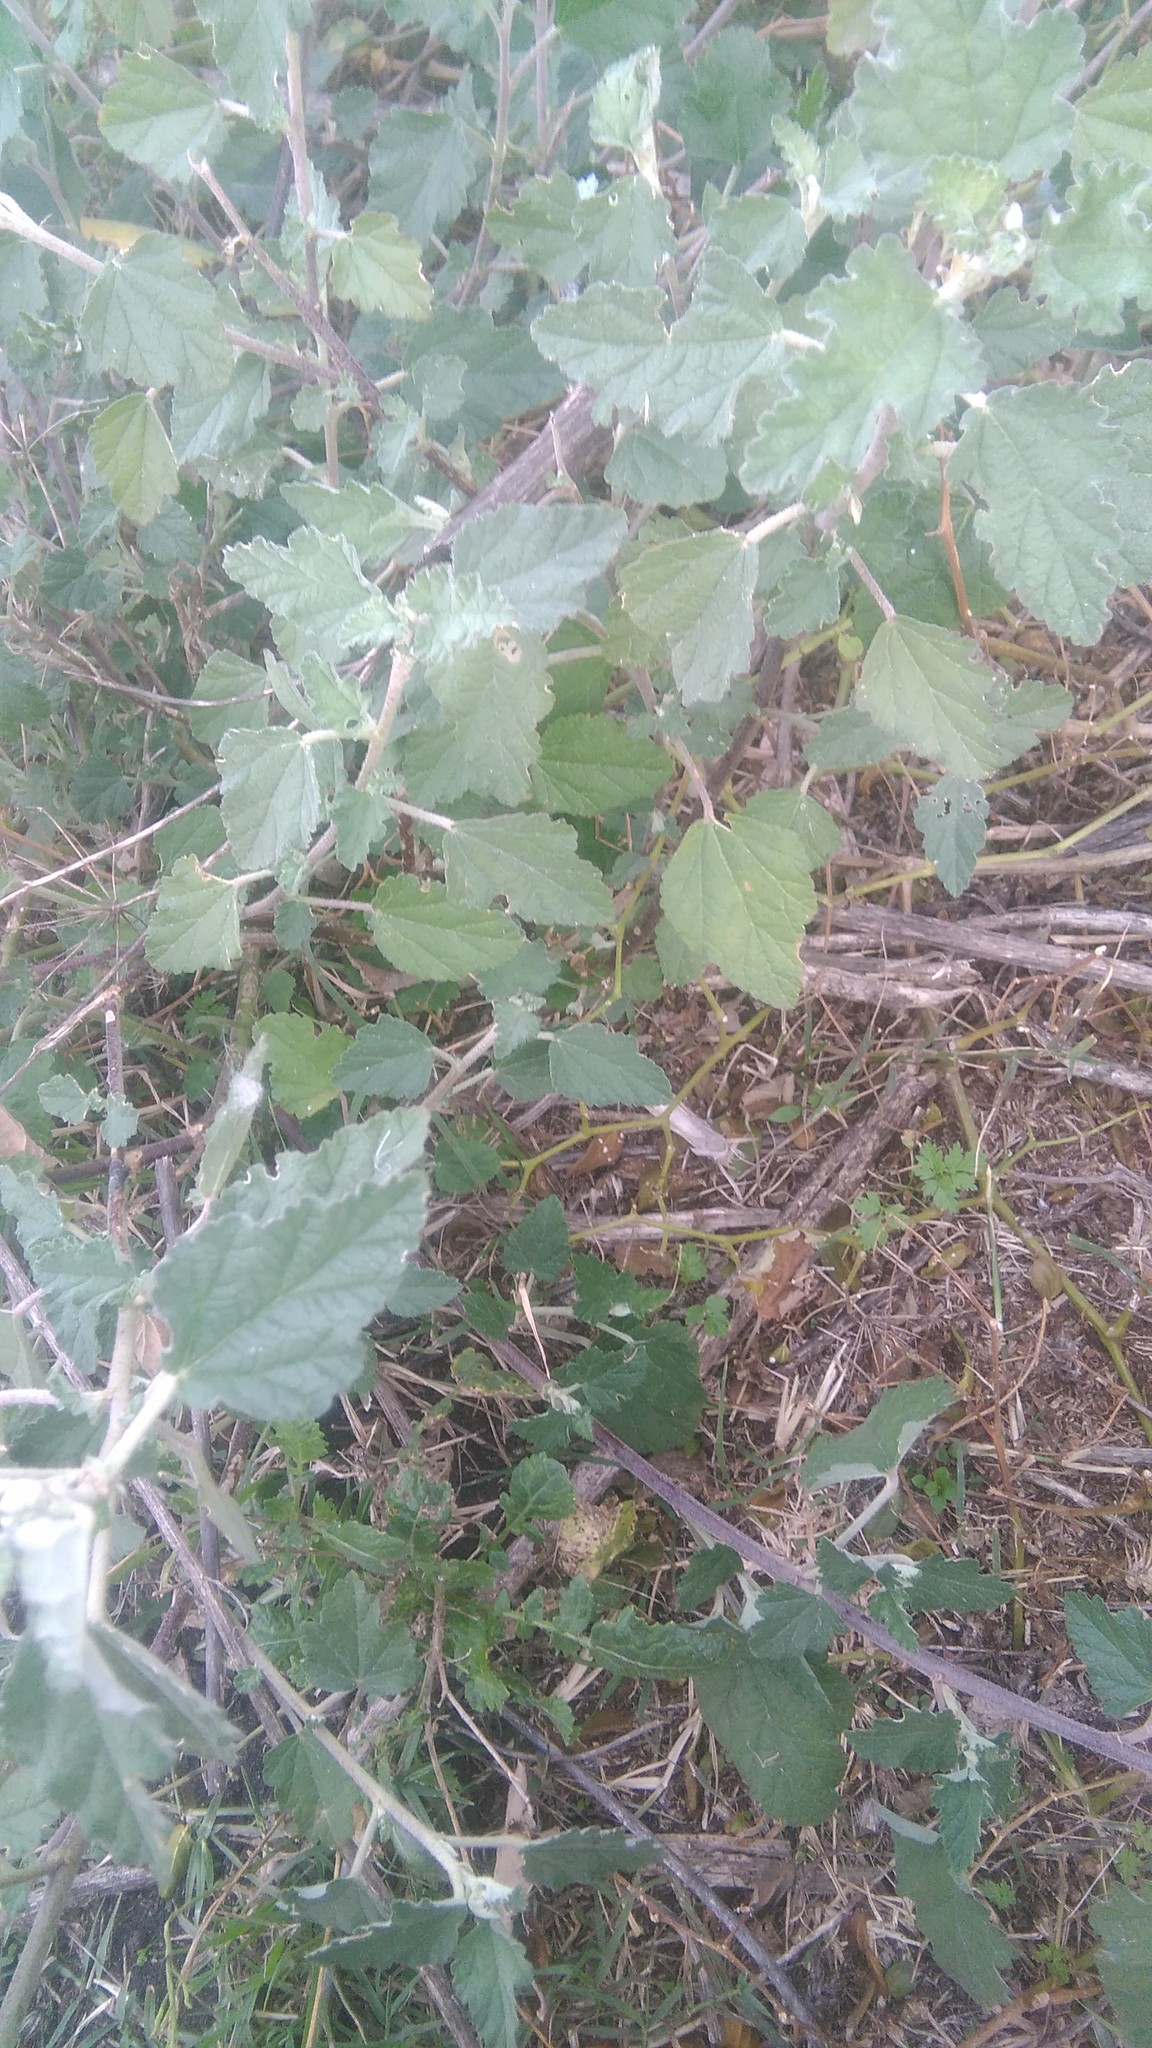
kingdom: Plantae
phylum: Tracheophyta
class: Magnoliopsida
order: Malvales
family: Malvaceae
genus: Sphaeralcea
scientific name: Sphaeralcea bonariensis
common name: Latin globemallow
